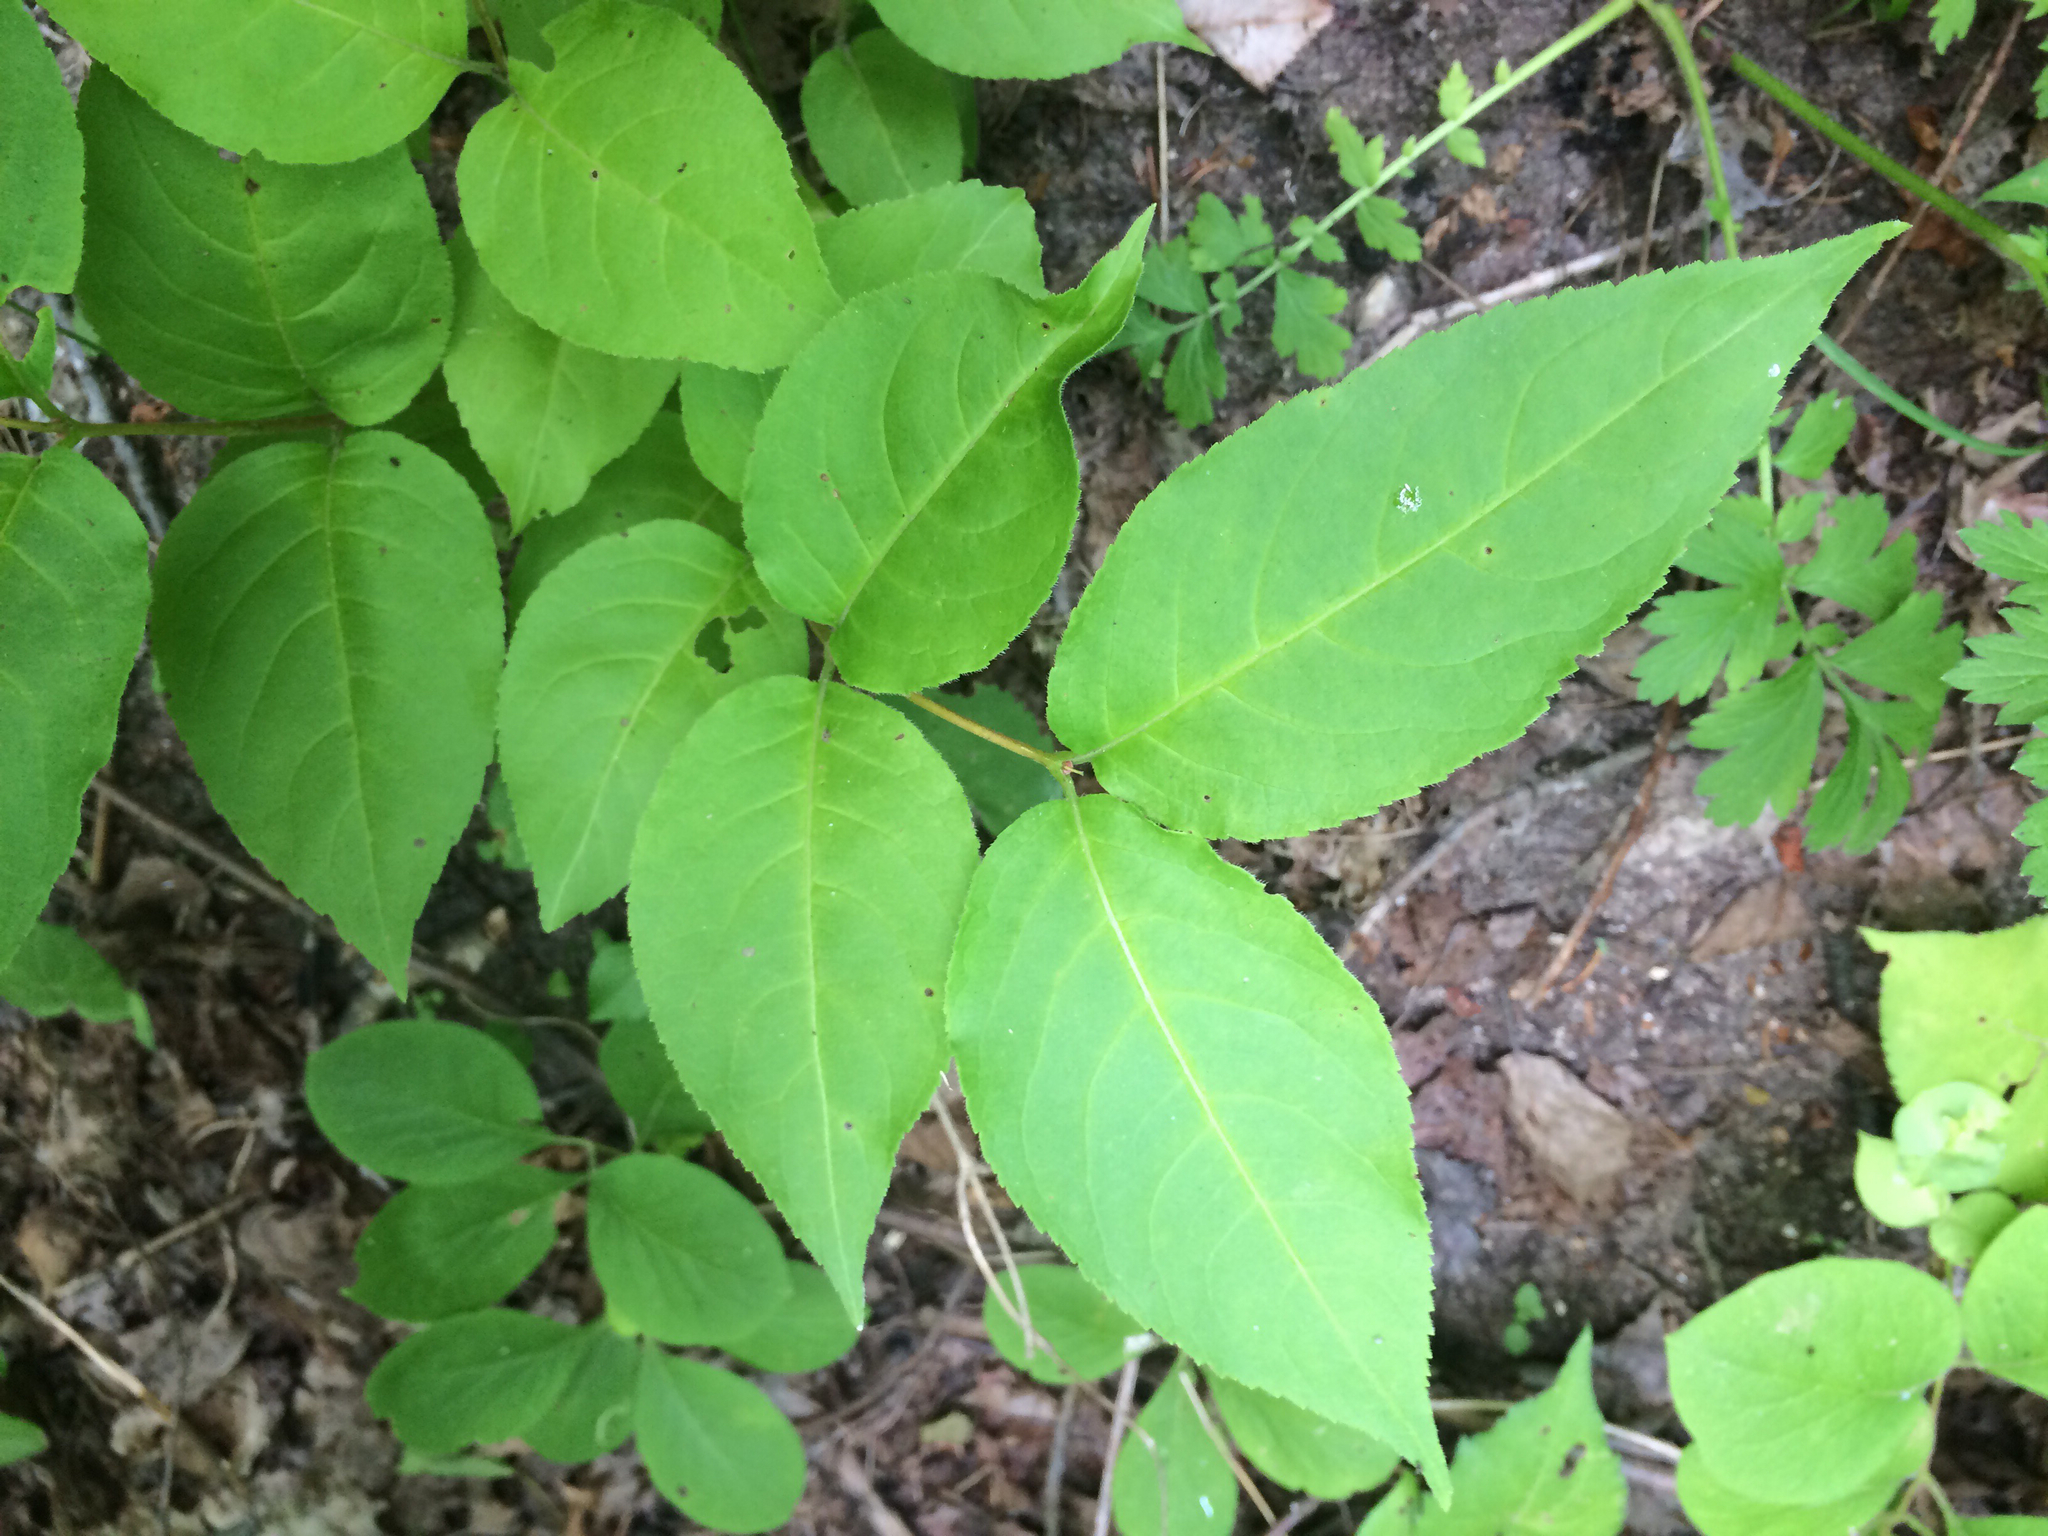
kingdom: Plantae
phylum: Tracheophyta
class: Magnoliopsida
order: Dipsacales
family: Caprifoliaceae
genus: Diervilla
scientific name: Diervilla lonicera
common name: Bush-honeysuckle
